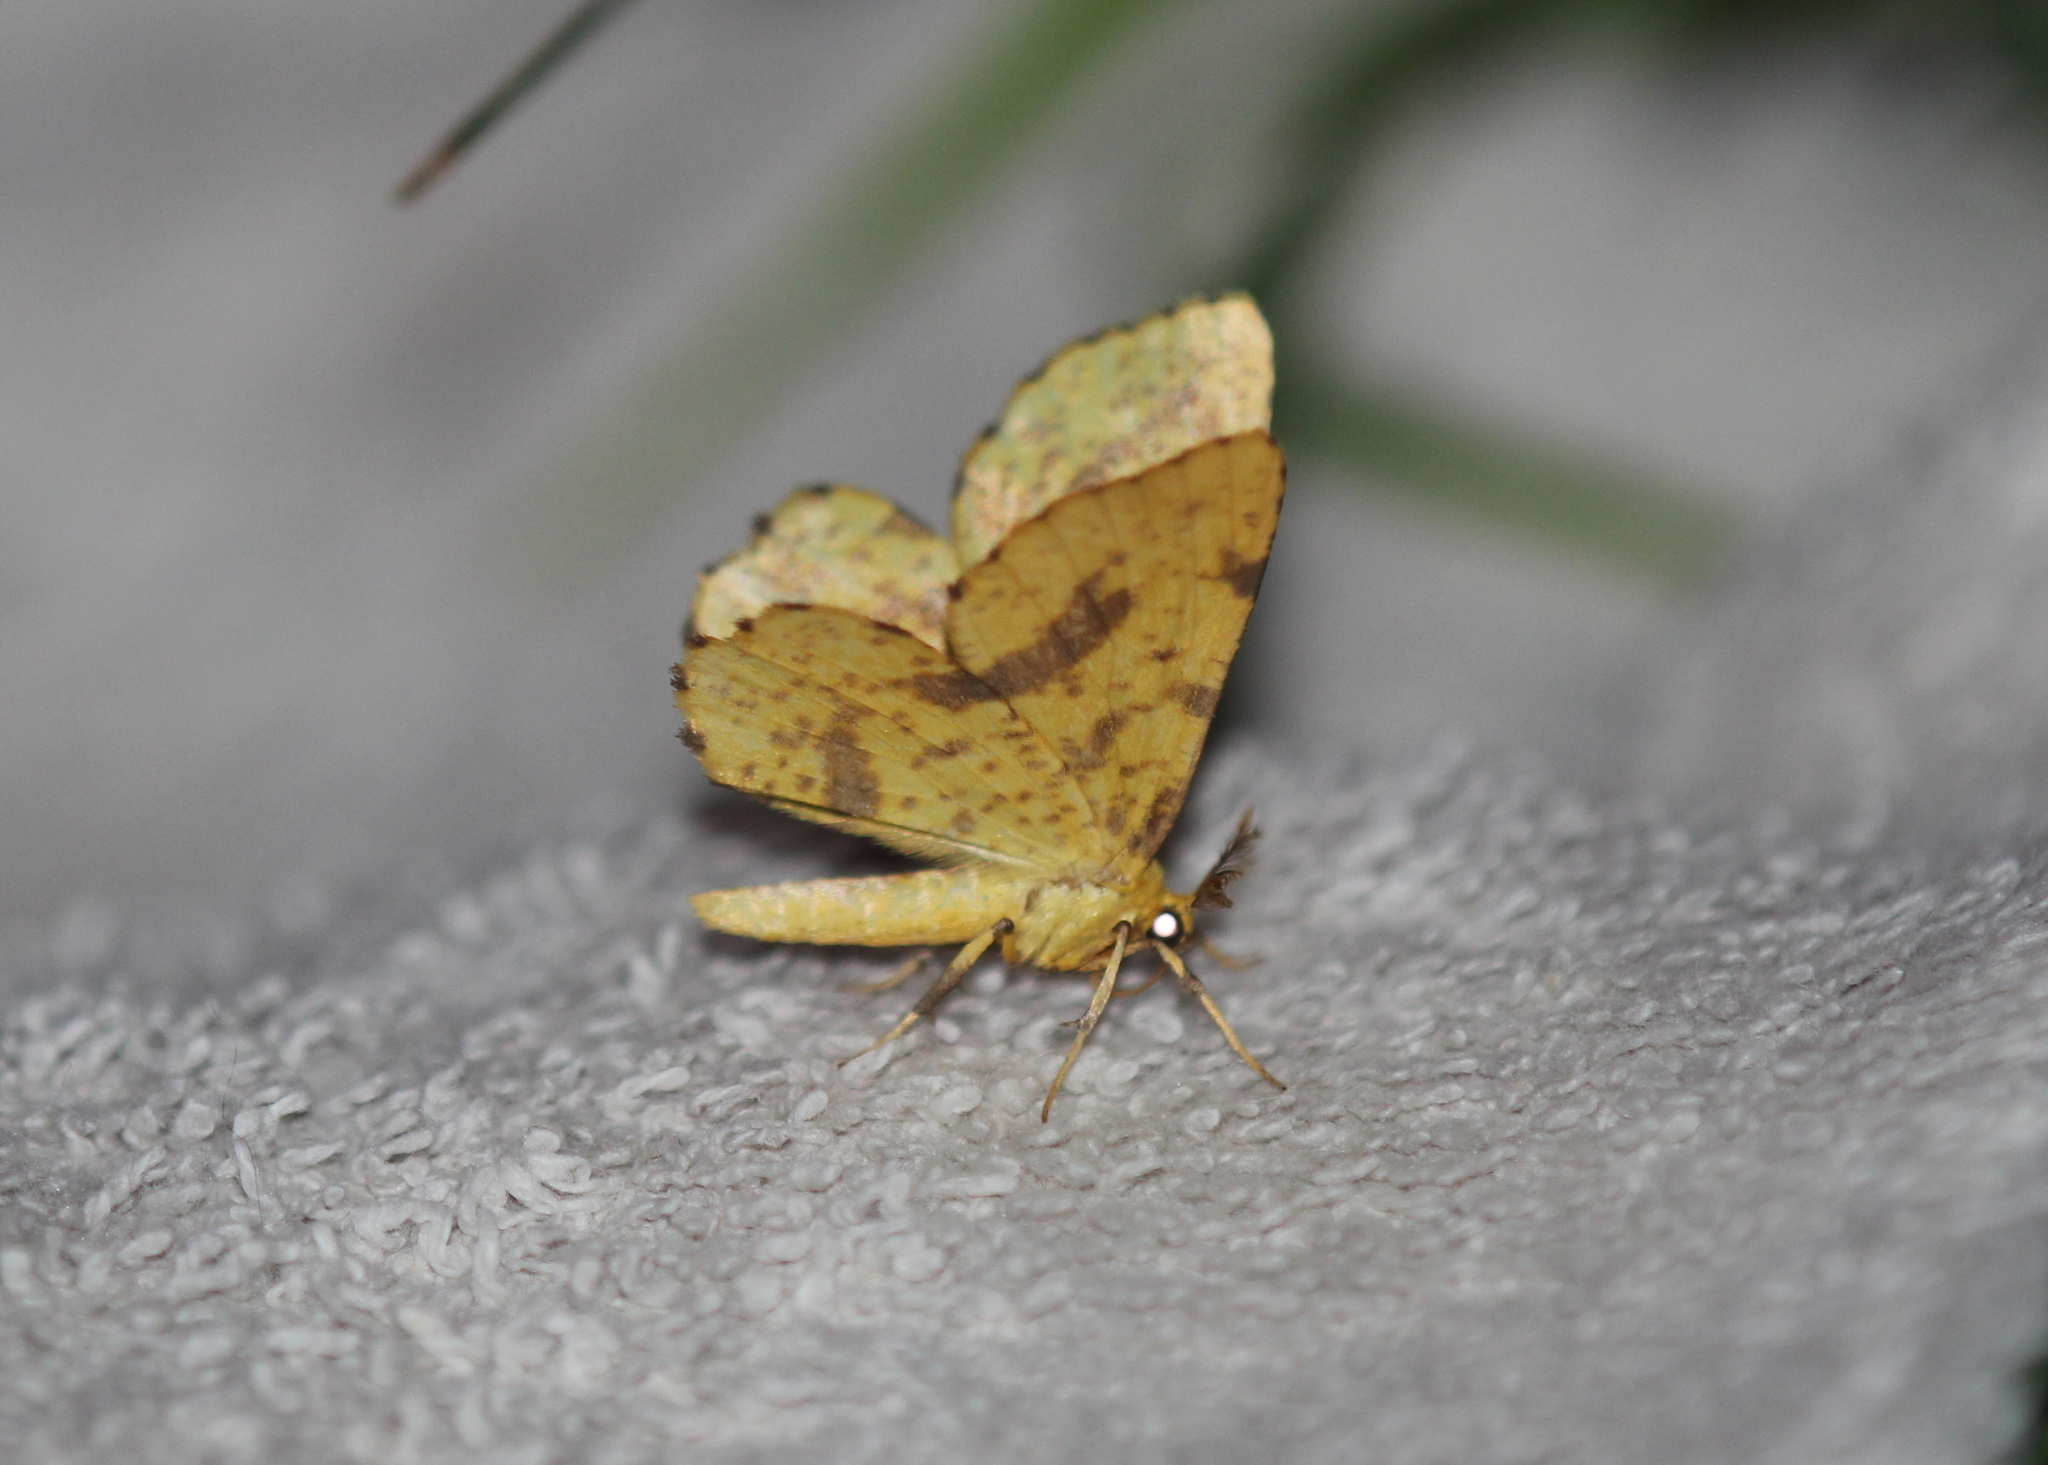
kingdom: Animalia
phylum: Arthropoda
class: Insecta
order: Lepidoptera
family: Geometridae
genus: Xanthotype
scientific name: Xanthotype
